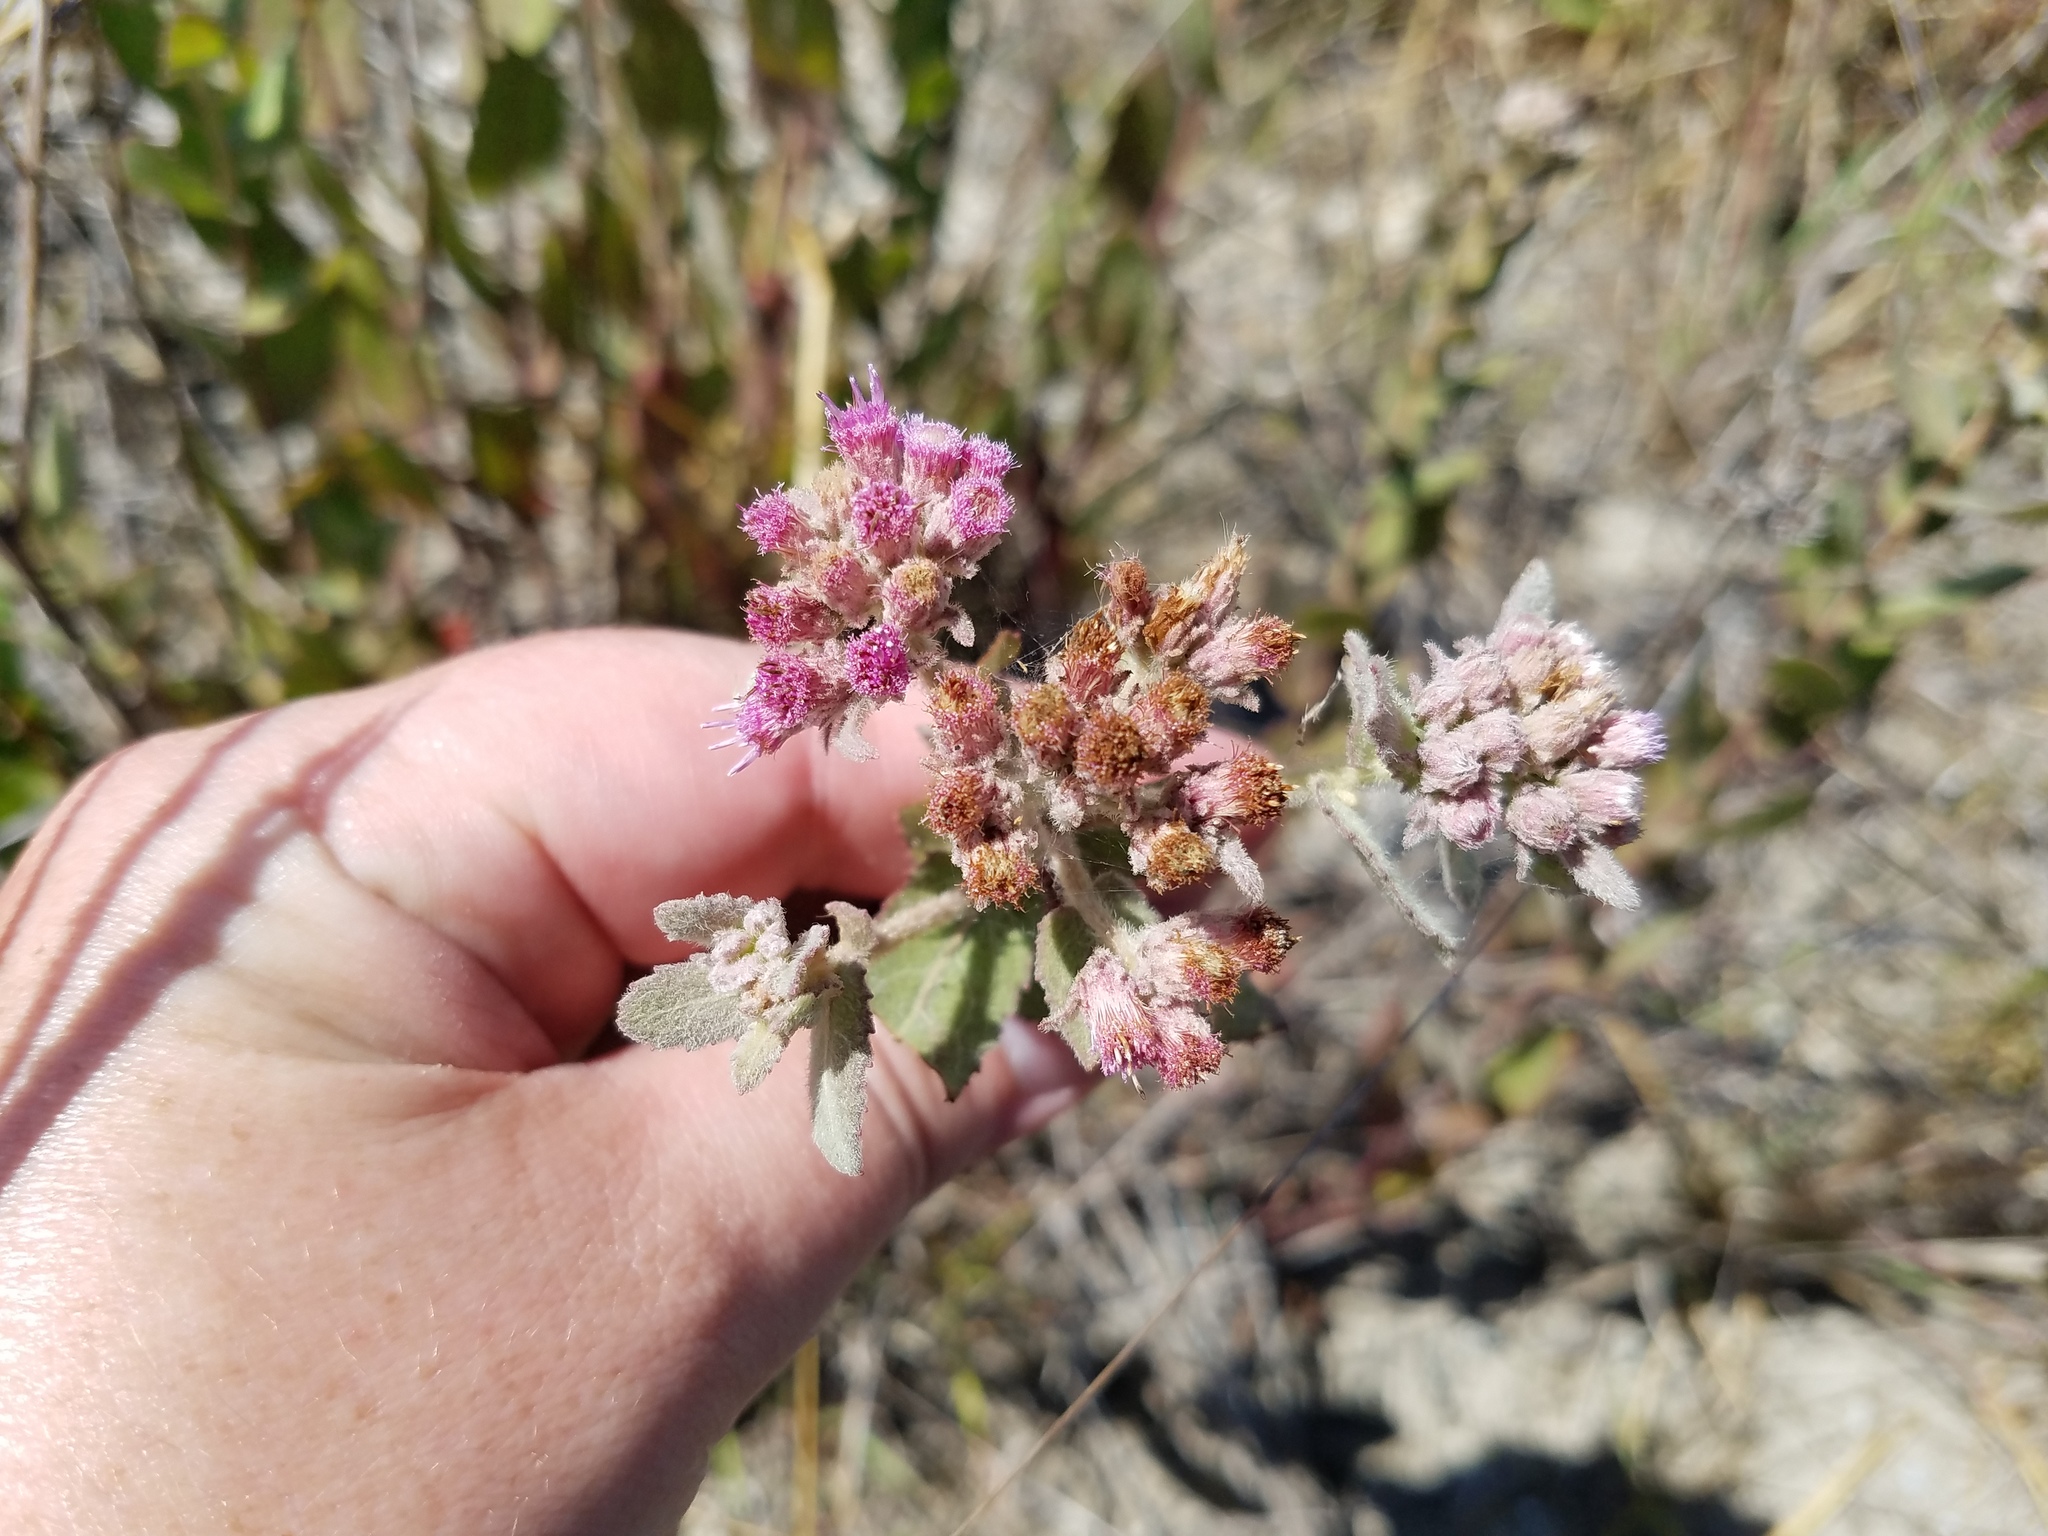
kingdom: Plantae
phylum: Tracheophyta
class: Magnoliopsida
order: Asterales
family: Asteraceae
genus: Pluchea
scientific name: Pluchea baccharis
